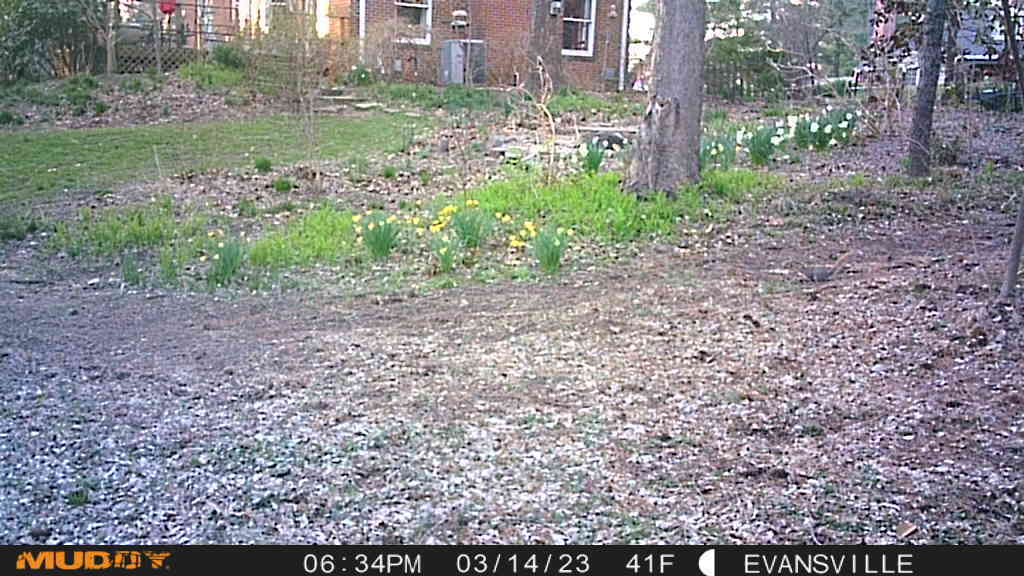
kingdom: Animalia
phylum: Chordata
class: Mammalia
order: Rodentia
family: Sciuridae
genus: Sciurus
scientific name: Sciurus carolinensis
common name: Eastern gray squirrel
